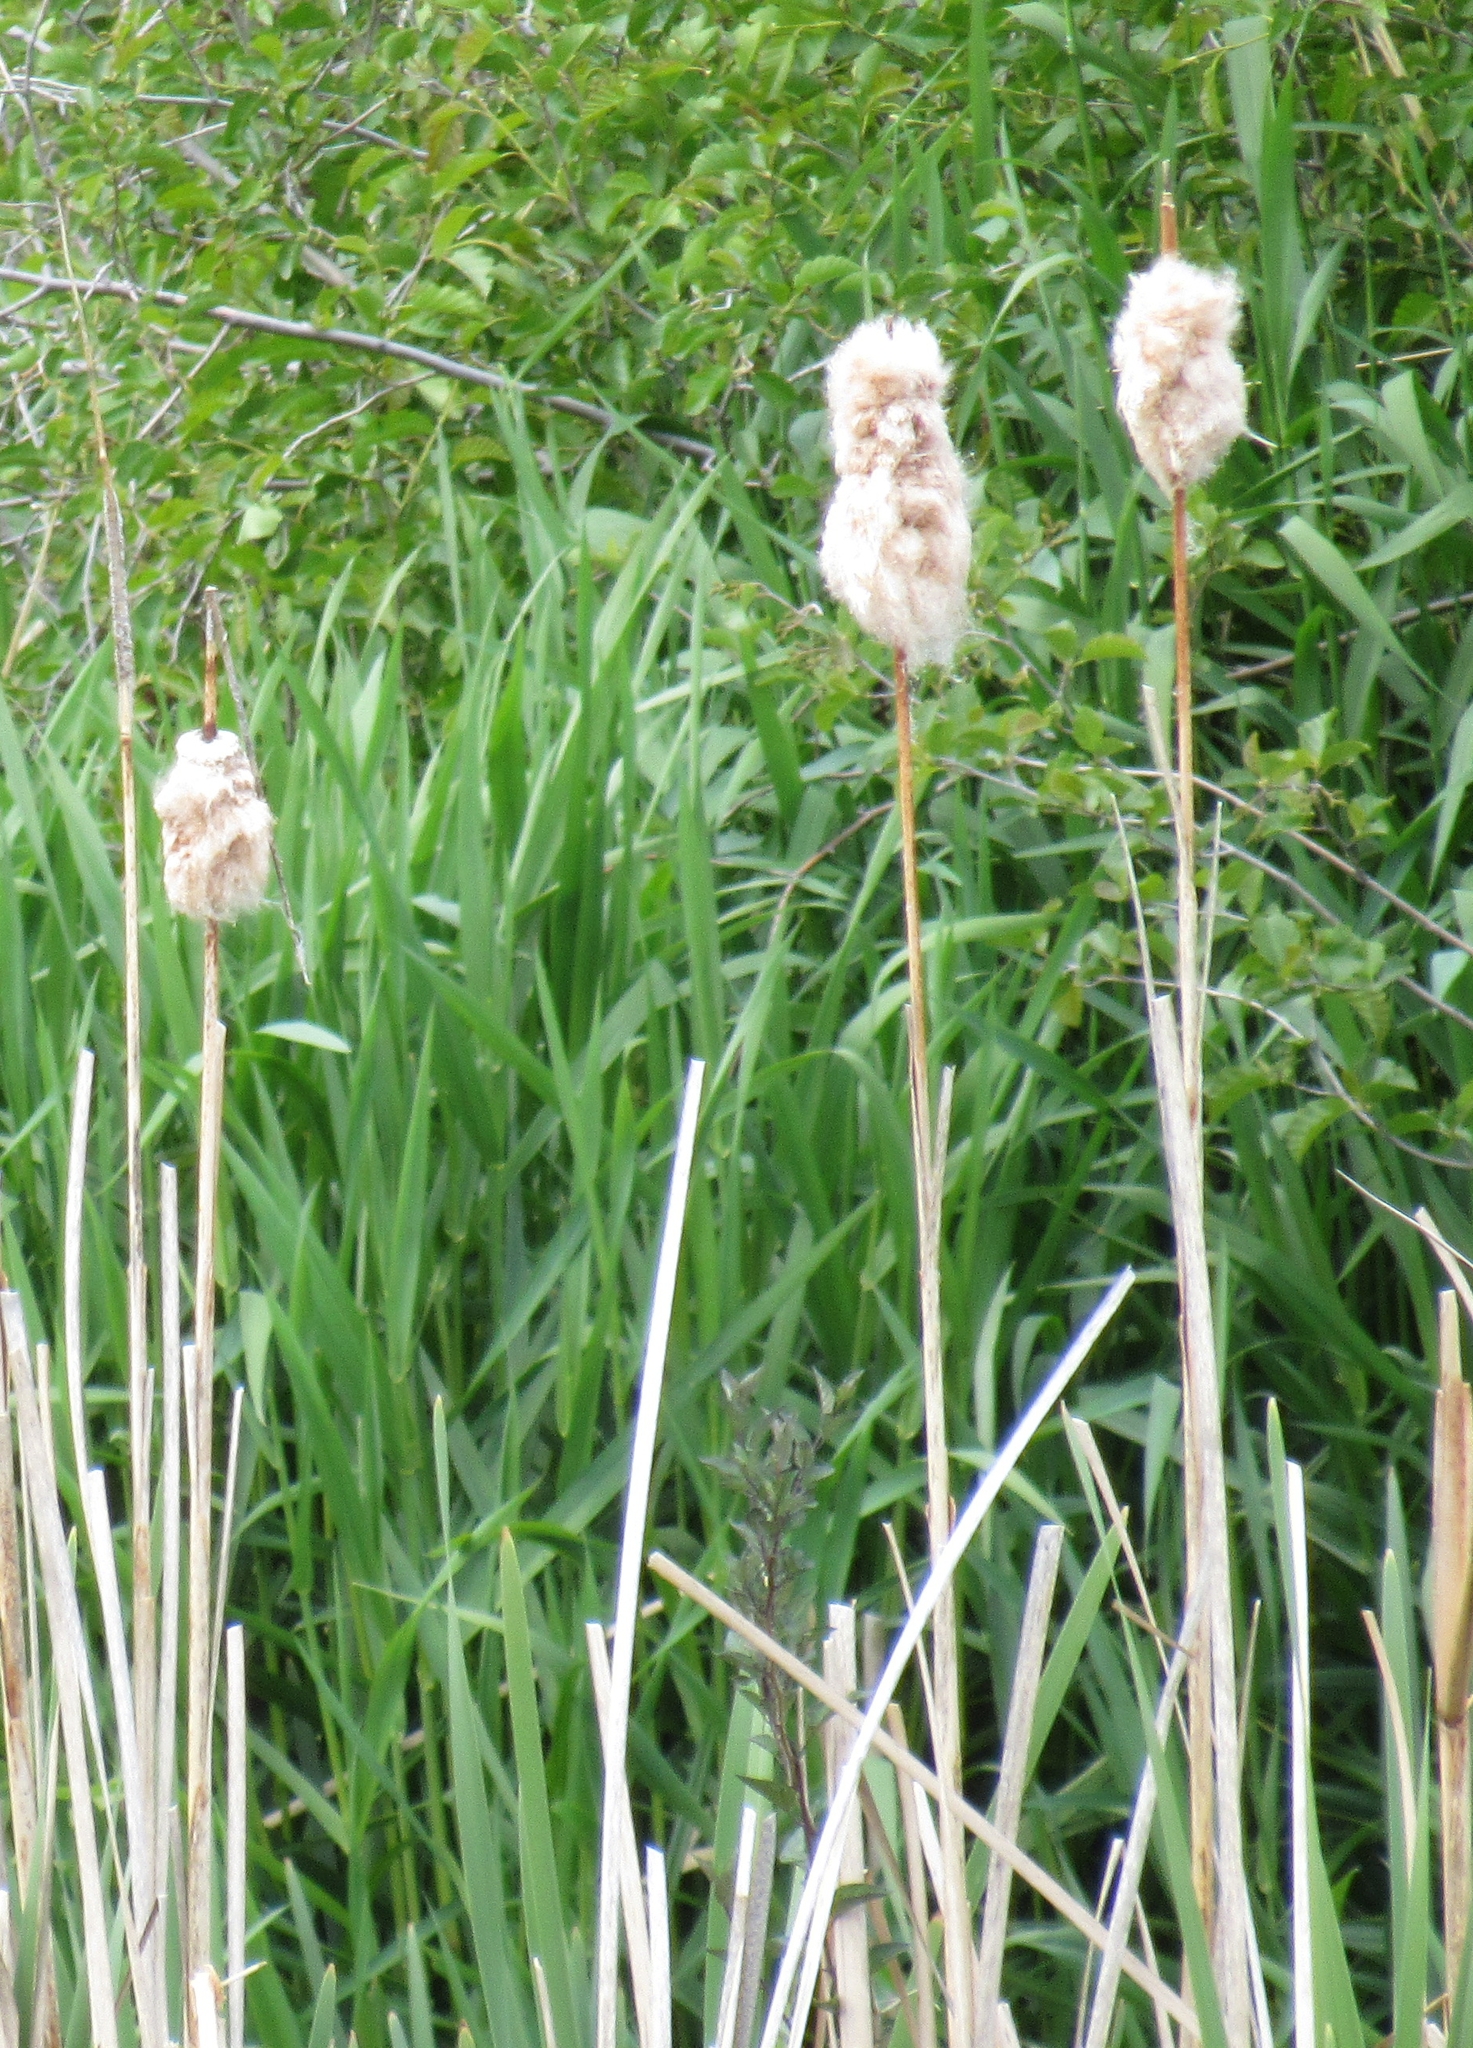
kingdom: Plantae
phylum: Tracheophyta
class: Liliopsida
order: Poales
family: Typhaceae
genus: Typha
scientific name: Typha latifolia
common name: Broadleaf cattail
